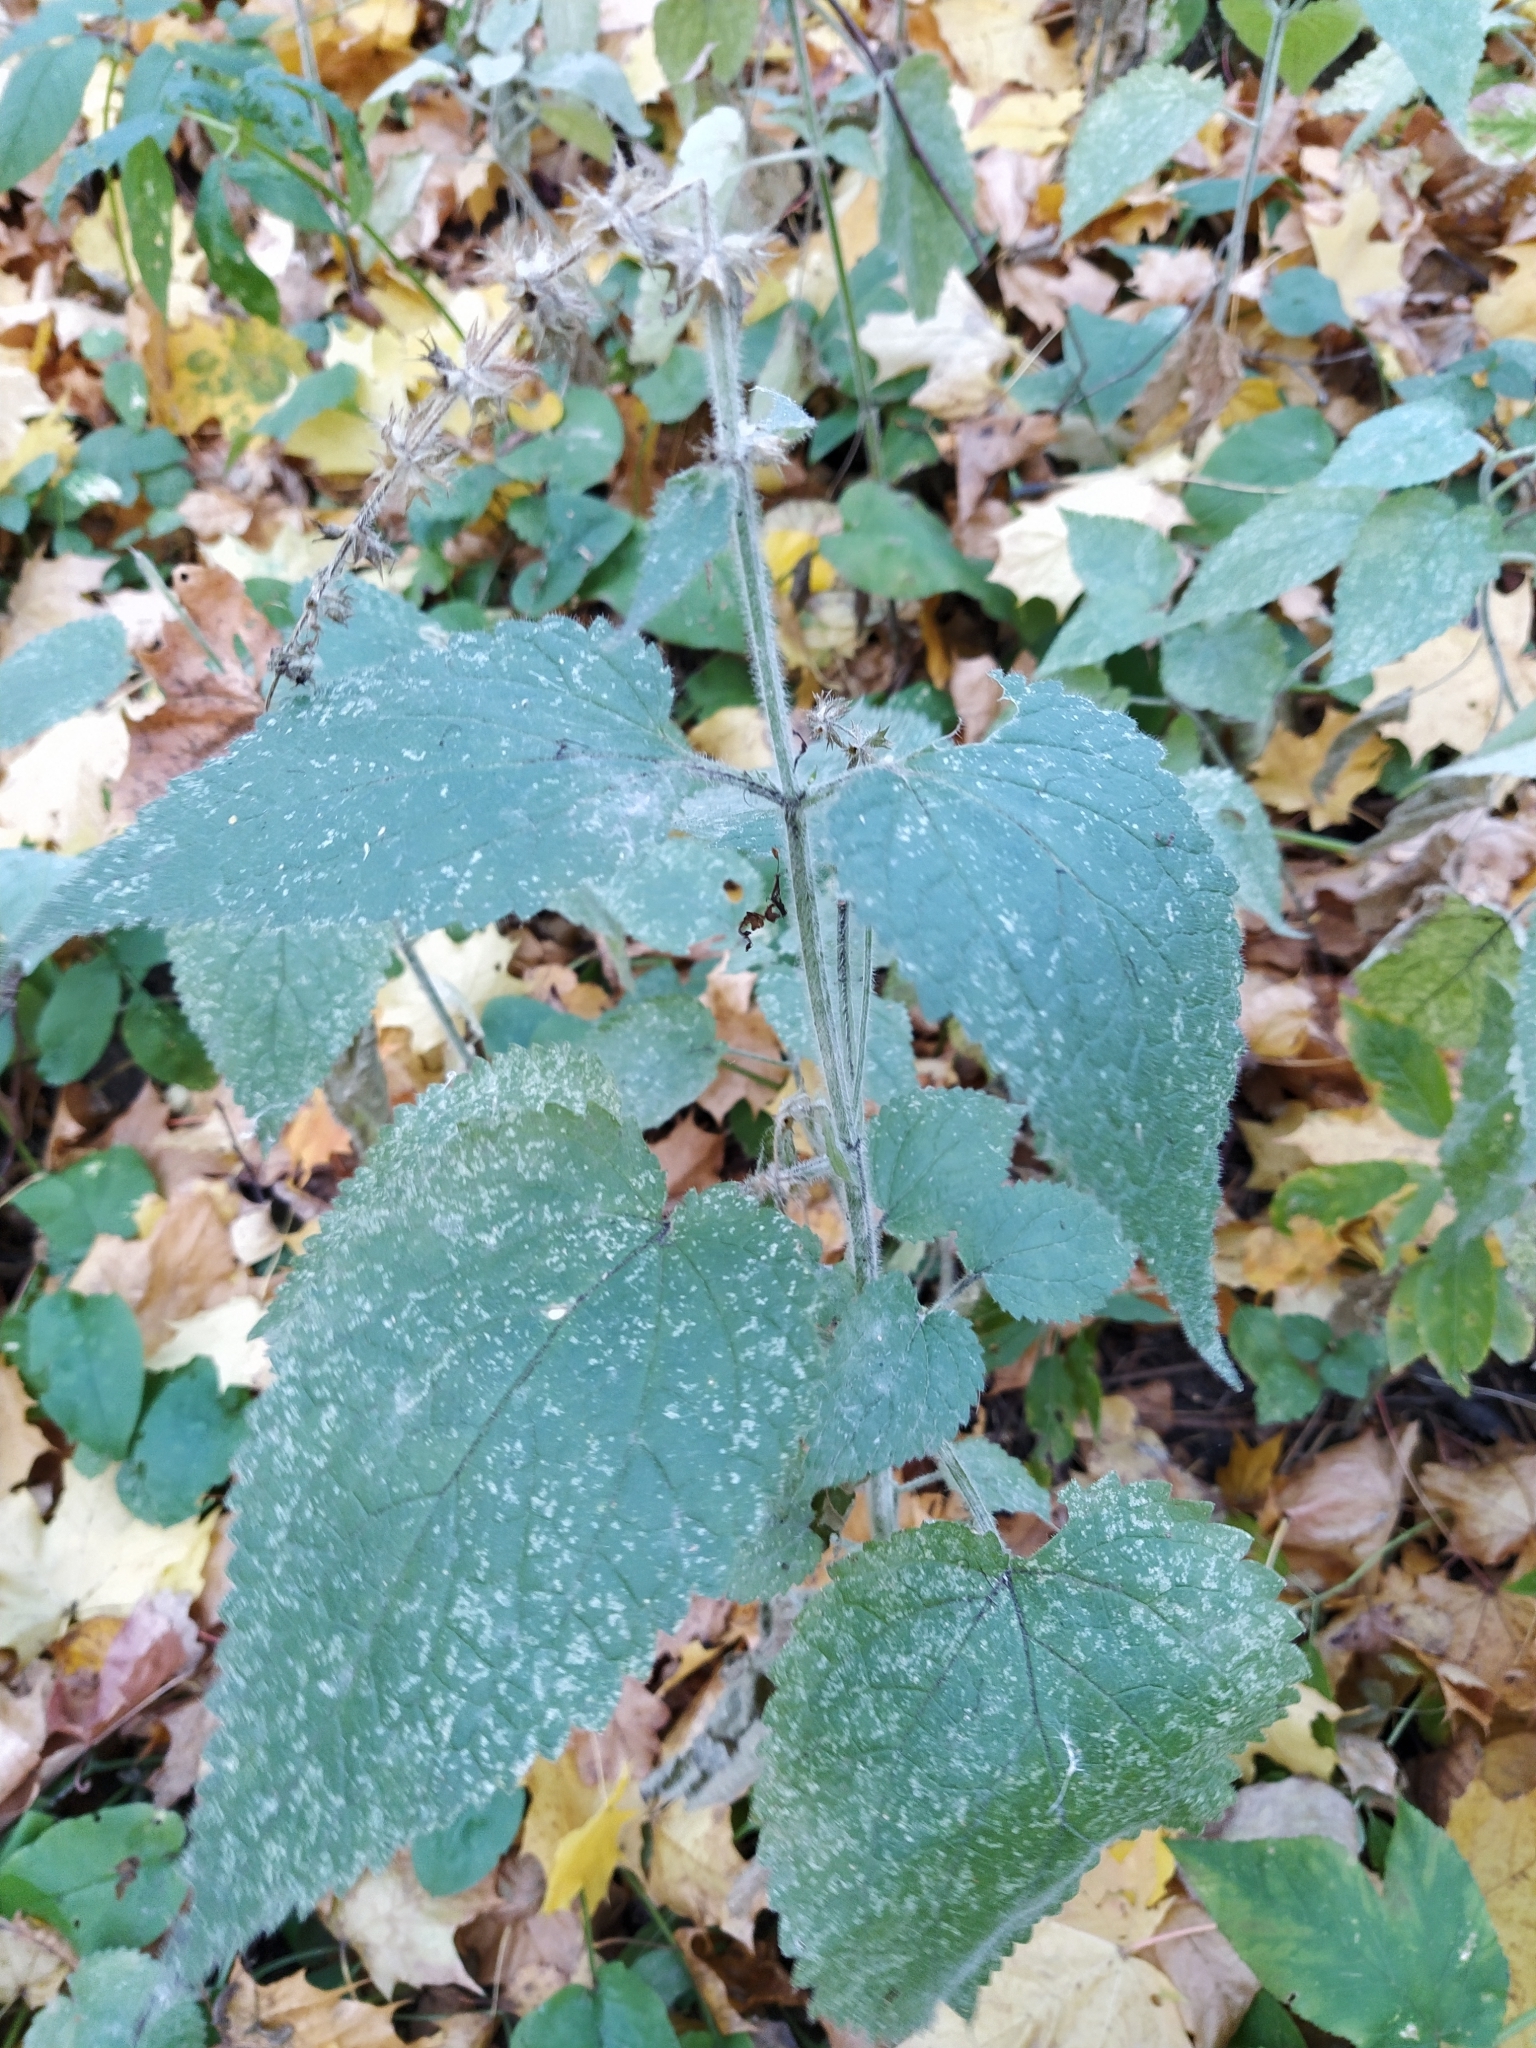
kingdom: Plantae
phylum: Tracheophyta
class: Magnoliopsida
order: Lamiales
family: Lamiaceae
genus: Stachys
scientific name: Stachys sylvatica
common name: Hedge woundwort
